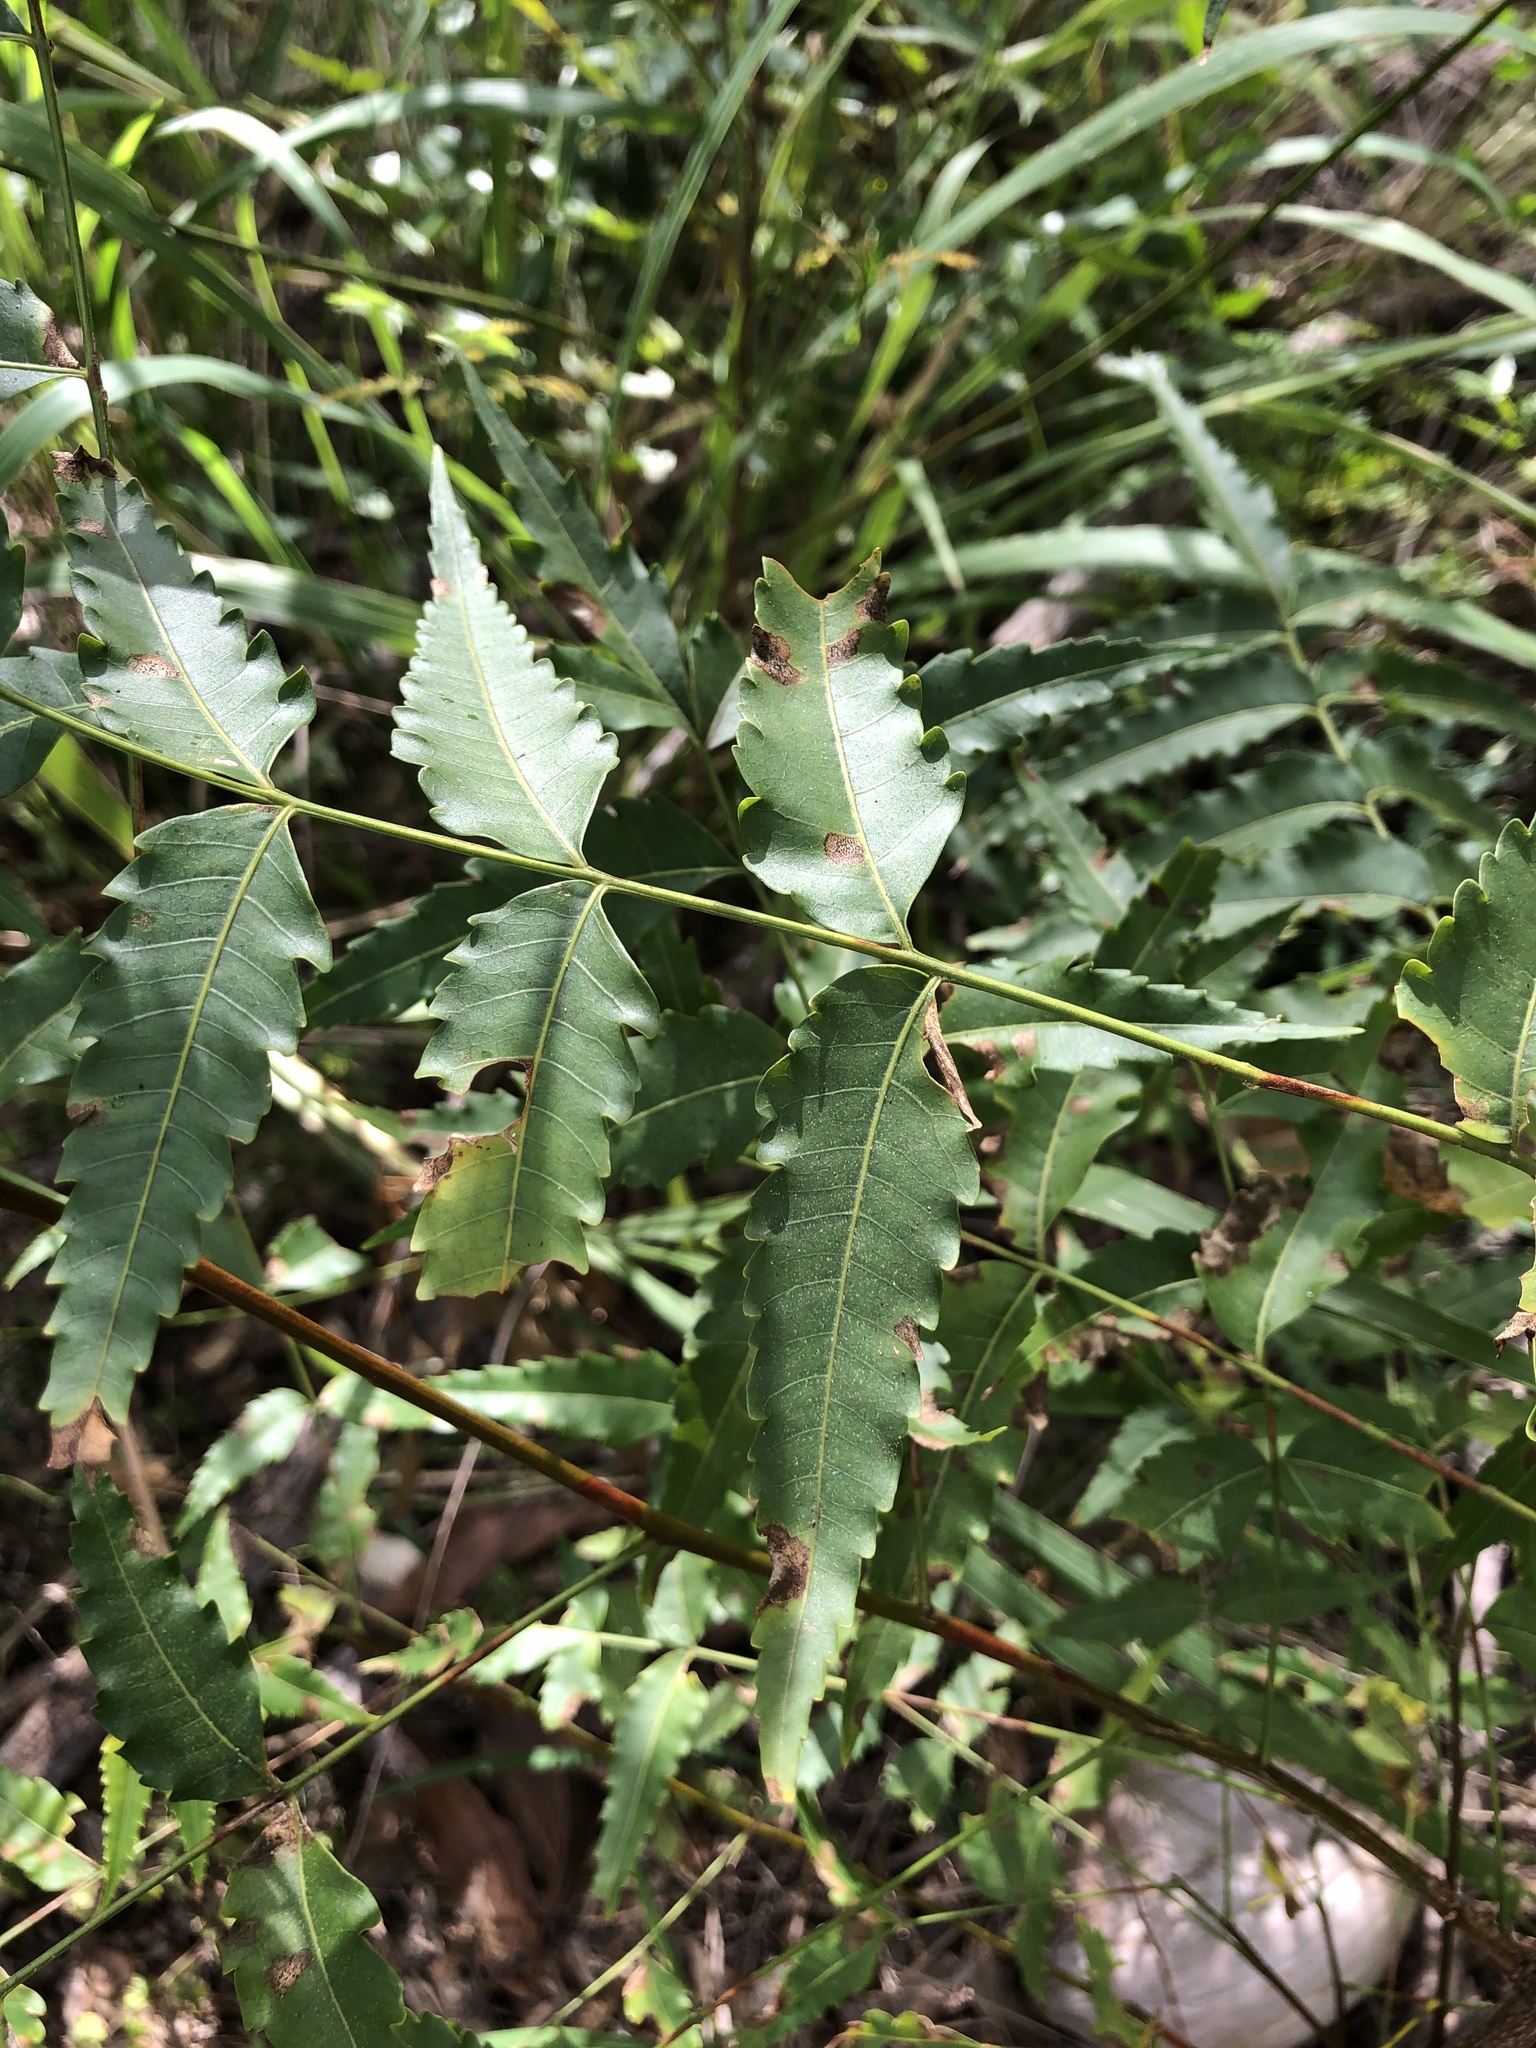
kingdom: Plantae
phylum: Tracheophyta
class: Magnoliopsida
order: Sapindales
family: Meliaceae
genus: Azadirachta
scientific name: Azadirachta indica
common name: Neem
